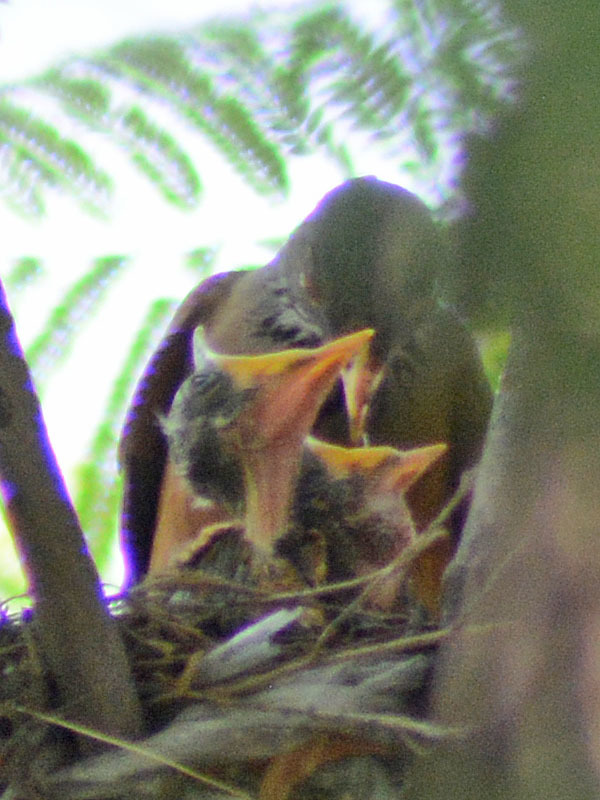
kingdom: Animalia
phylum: Chordata
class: Aves
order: Passeriformes
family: Turdidae
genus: Turdus
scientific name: Turdus rufopalliatus
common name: Rufous-backed robin
